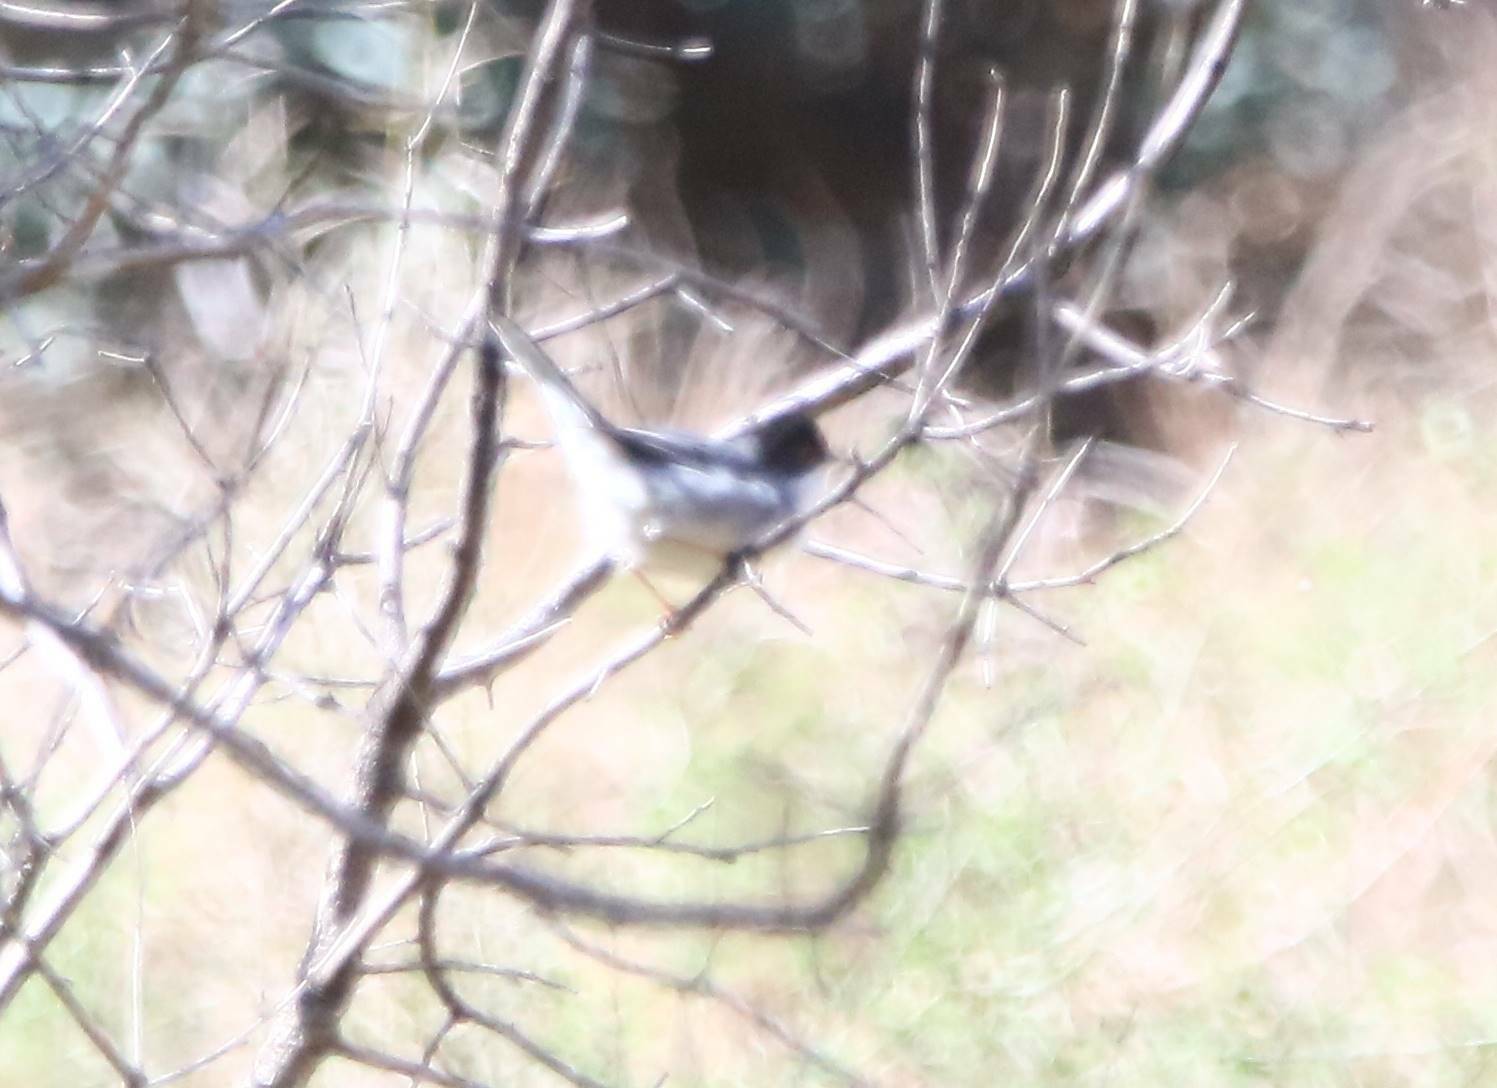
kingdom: Animalia
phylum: Chordata
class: Aves
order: Passeriformes
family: Sylviidae
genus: Curruca
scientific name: Curruca melanocephala
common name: Sardinian warbler
